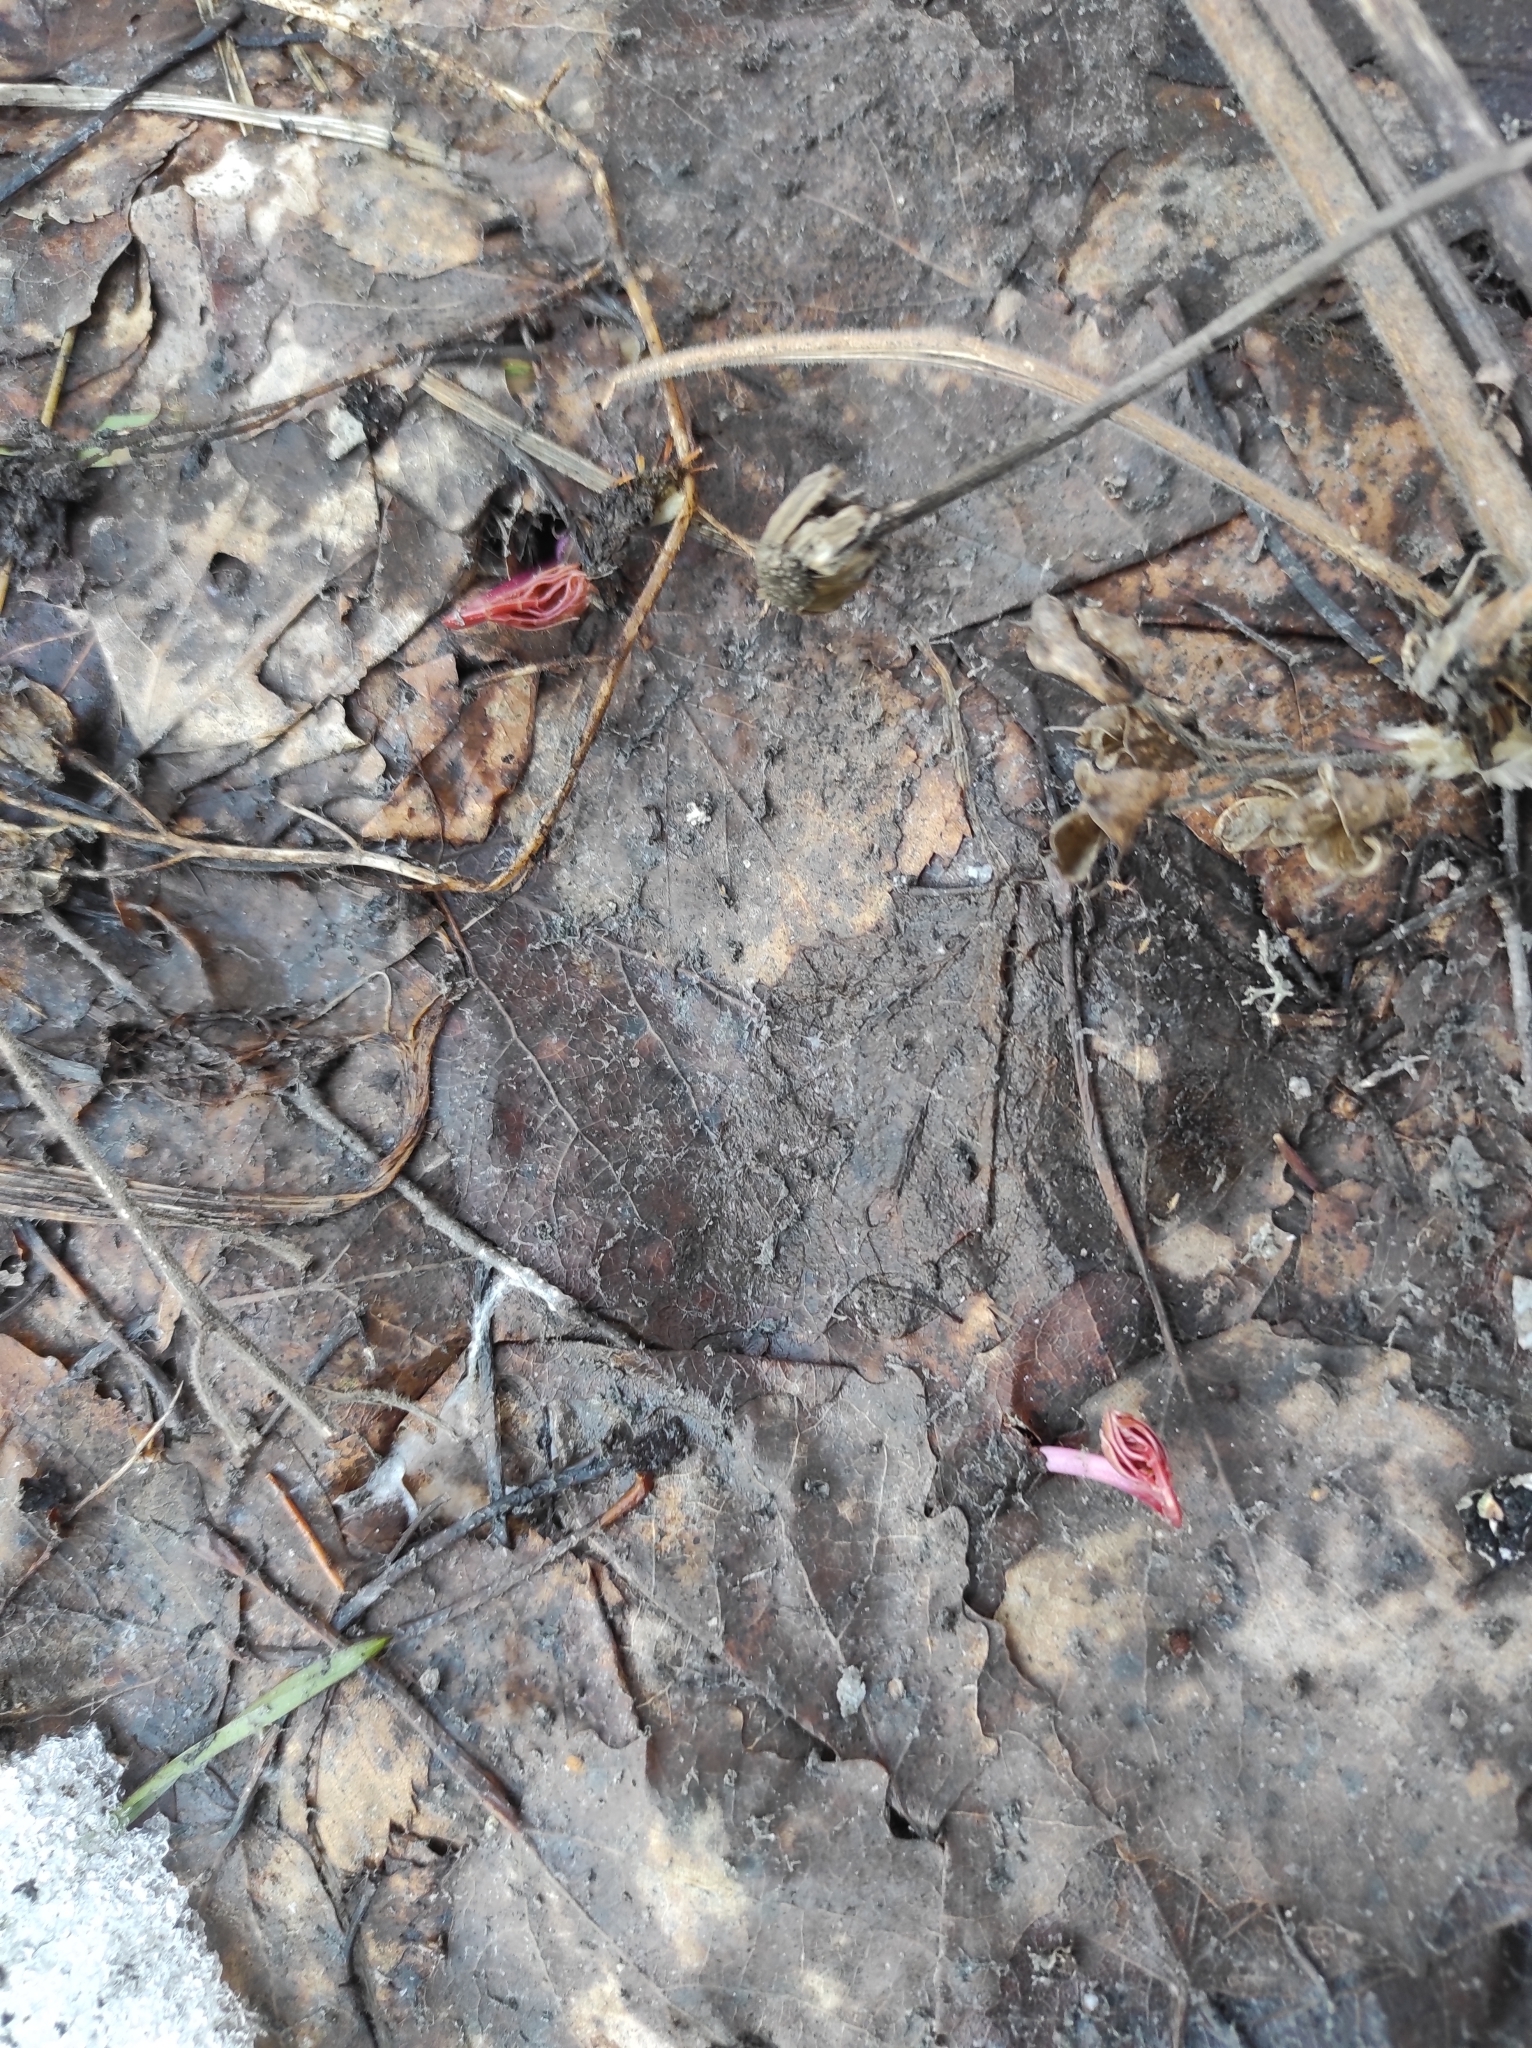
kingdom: Plantae
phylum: Tracheophyta
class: Magnoliopsida
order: Apiales
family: Apiaceae
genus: Aegopodium
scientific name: Aegopodium podagraria
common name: Ground-elder
